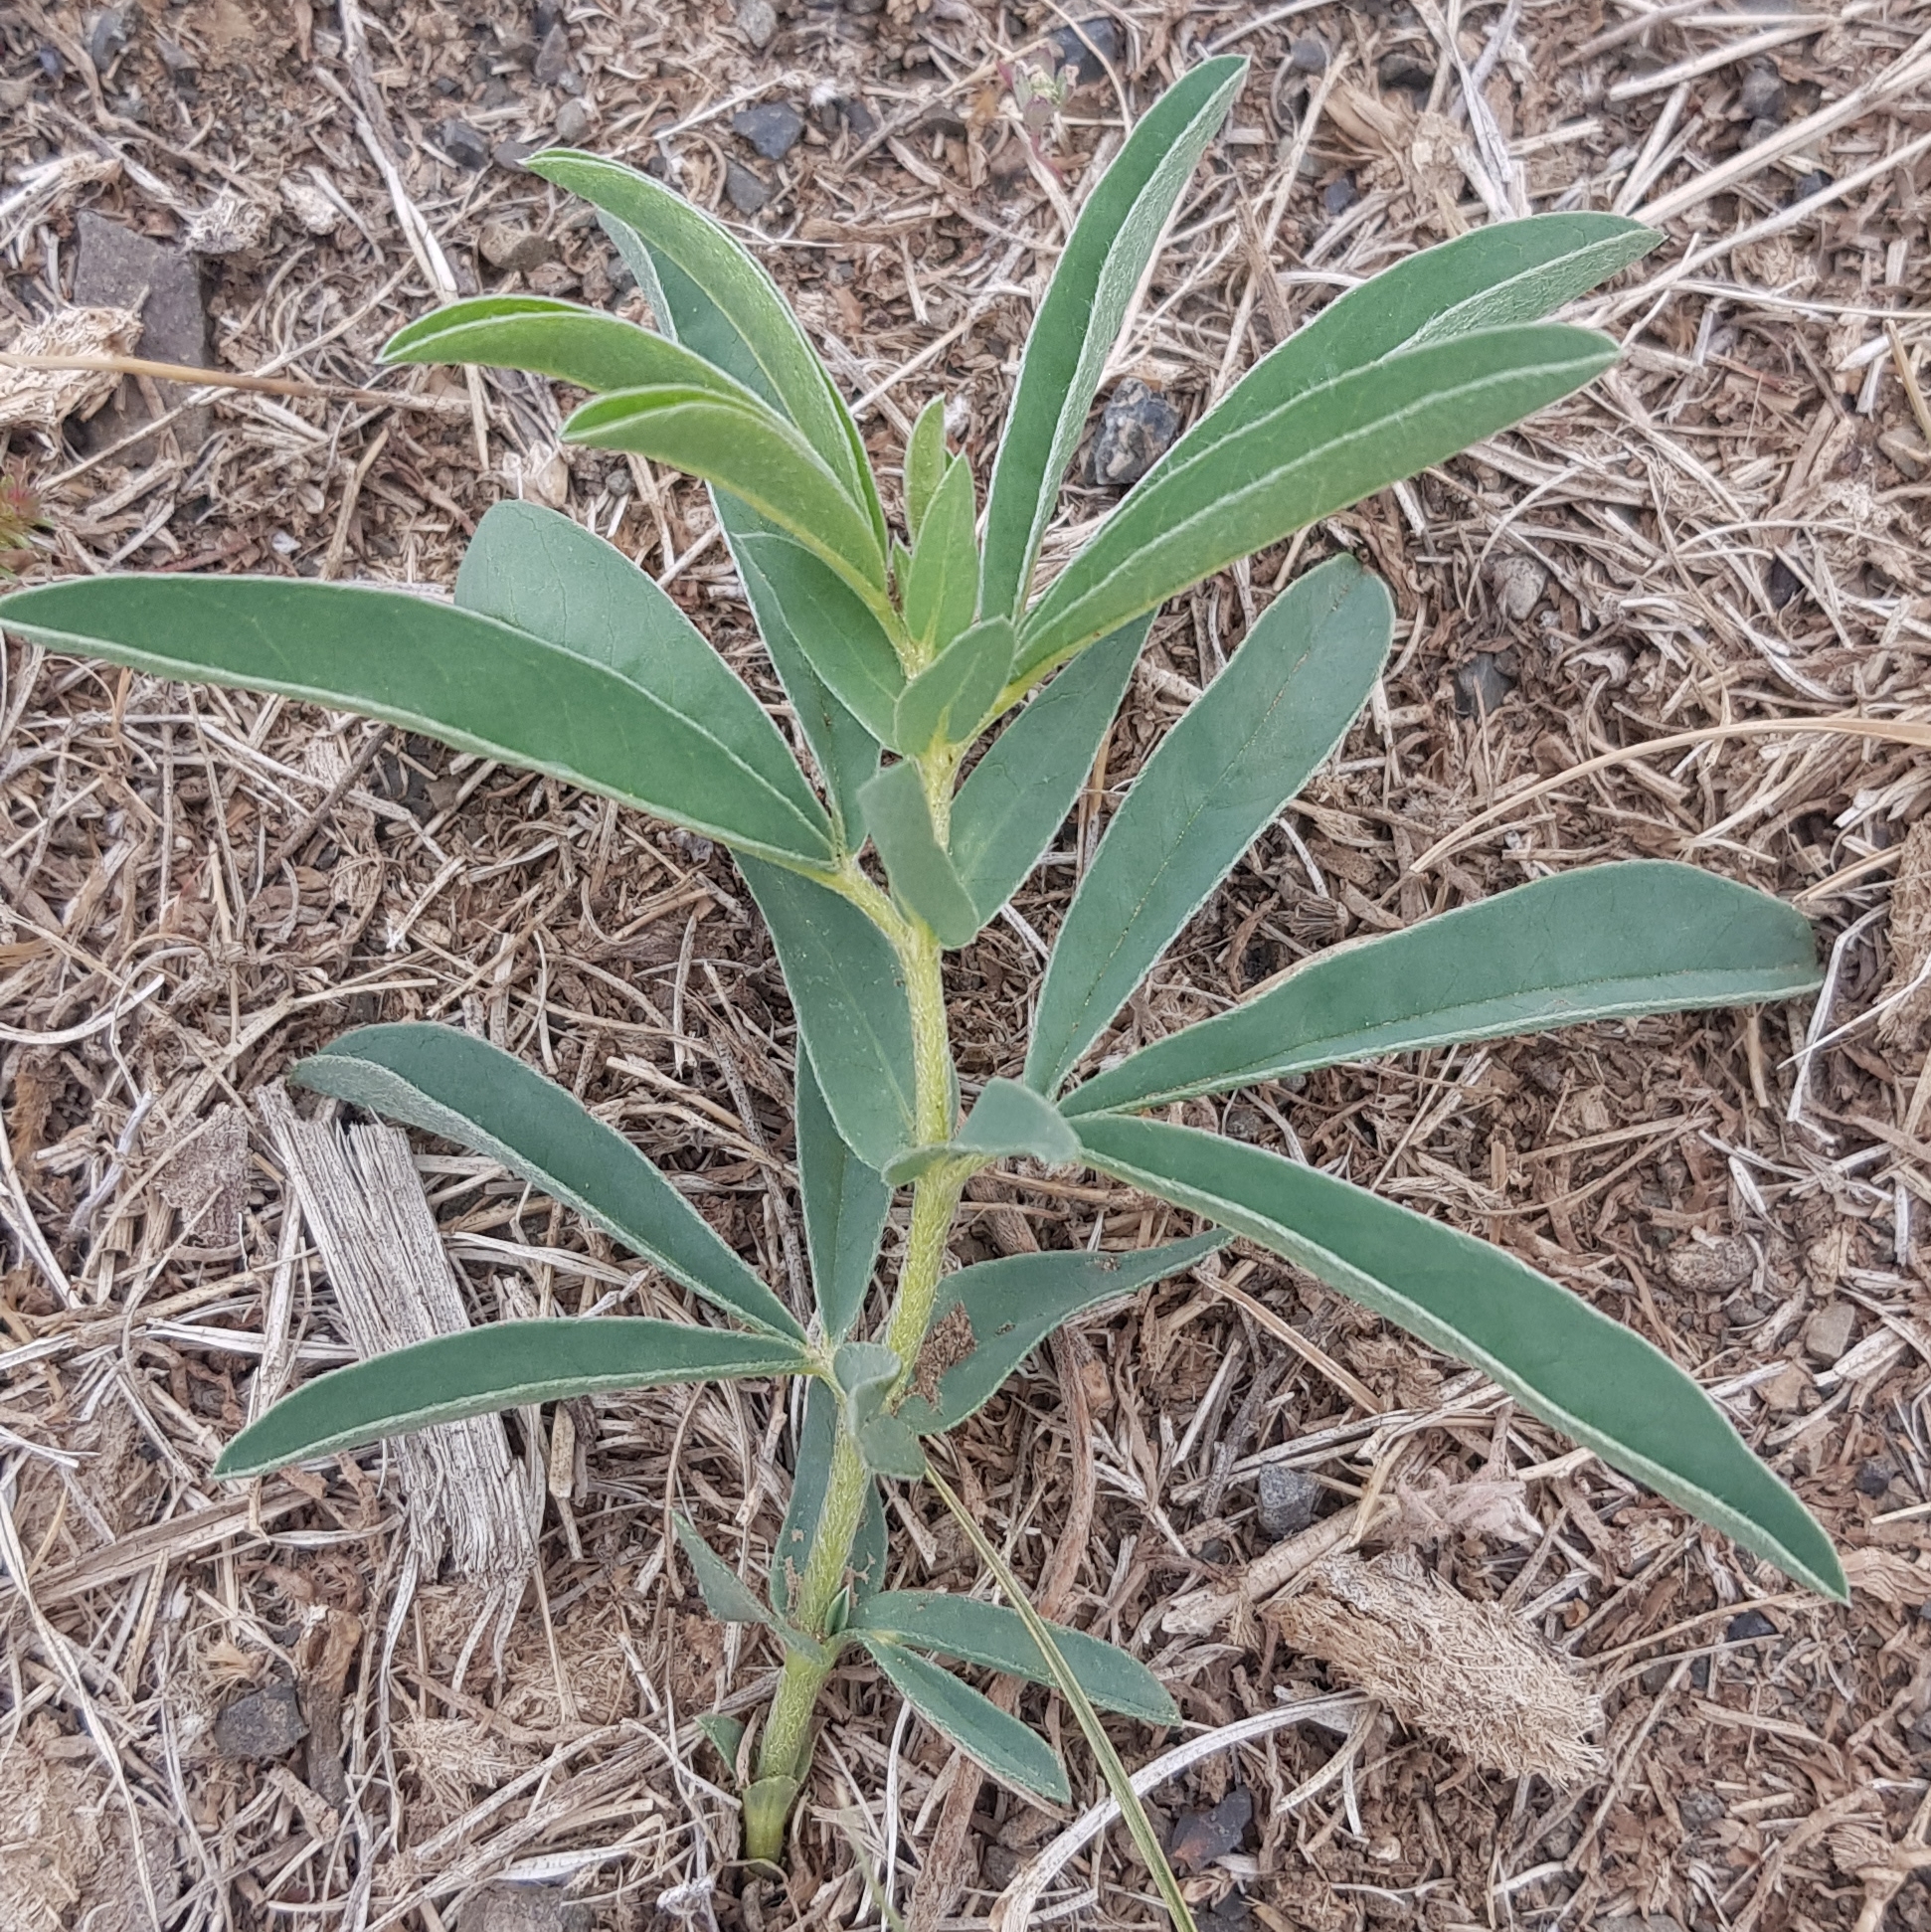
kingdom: Plantae
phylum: Tracheophyta
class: Magnoliopsida
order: Fabales
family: Fabaceae
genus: Thermopsis
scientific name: Thermopsis mongolica
